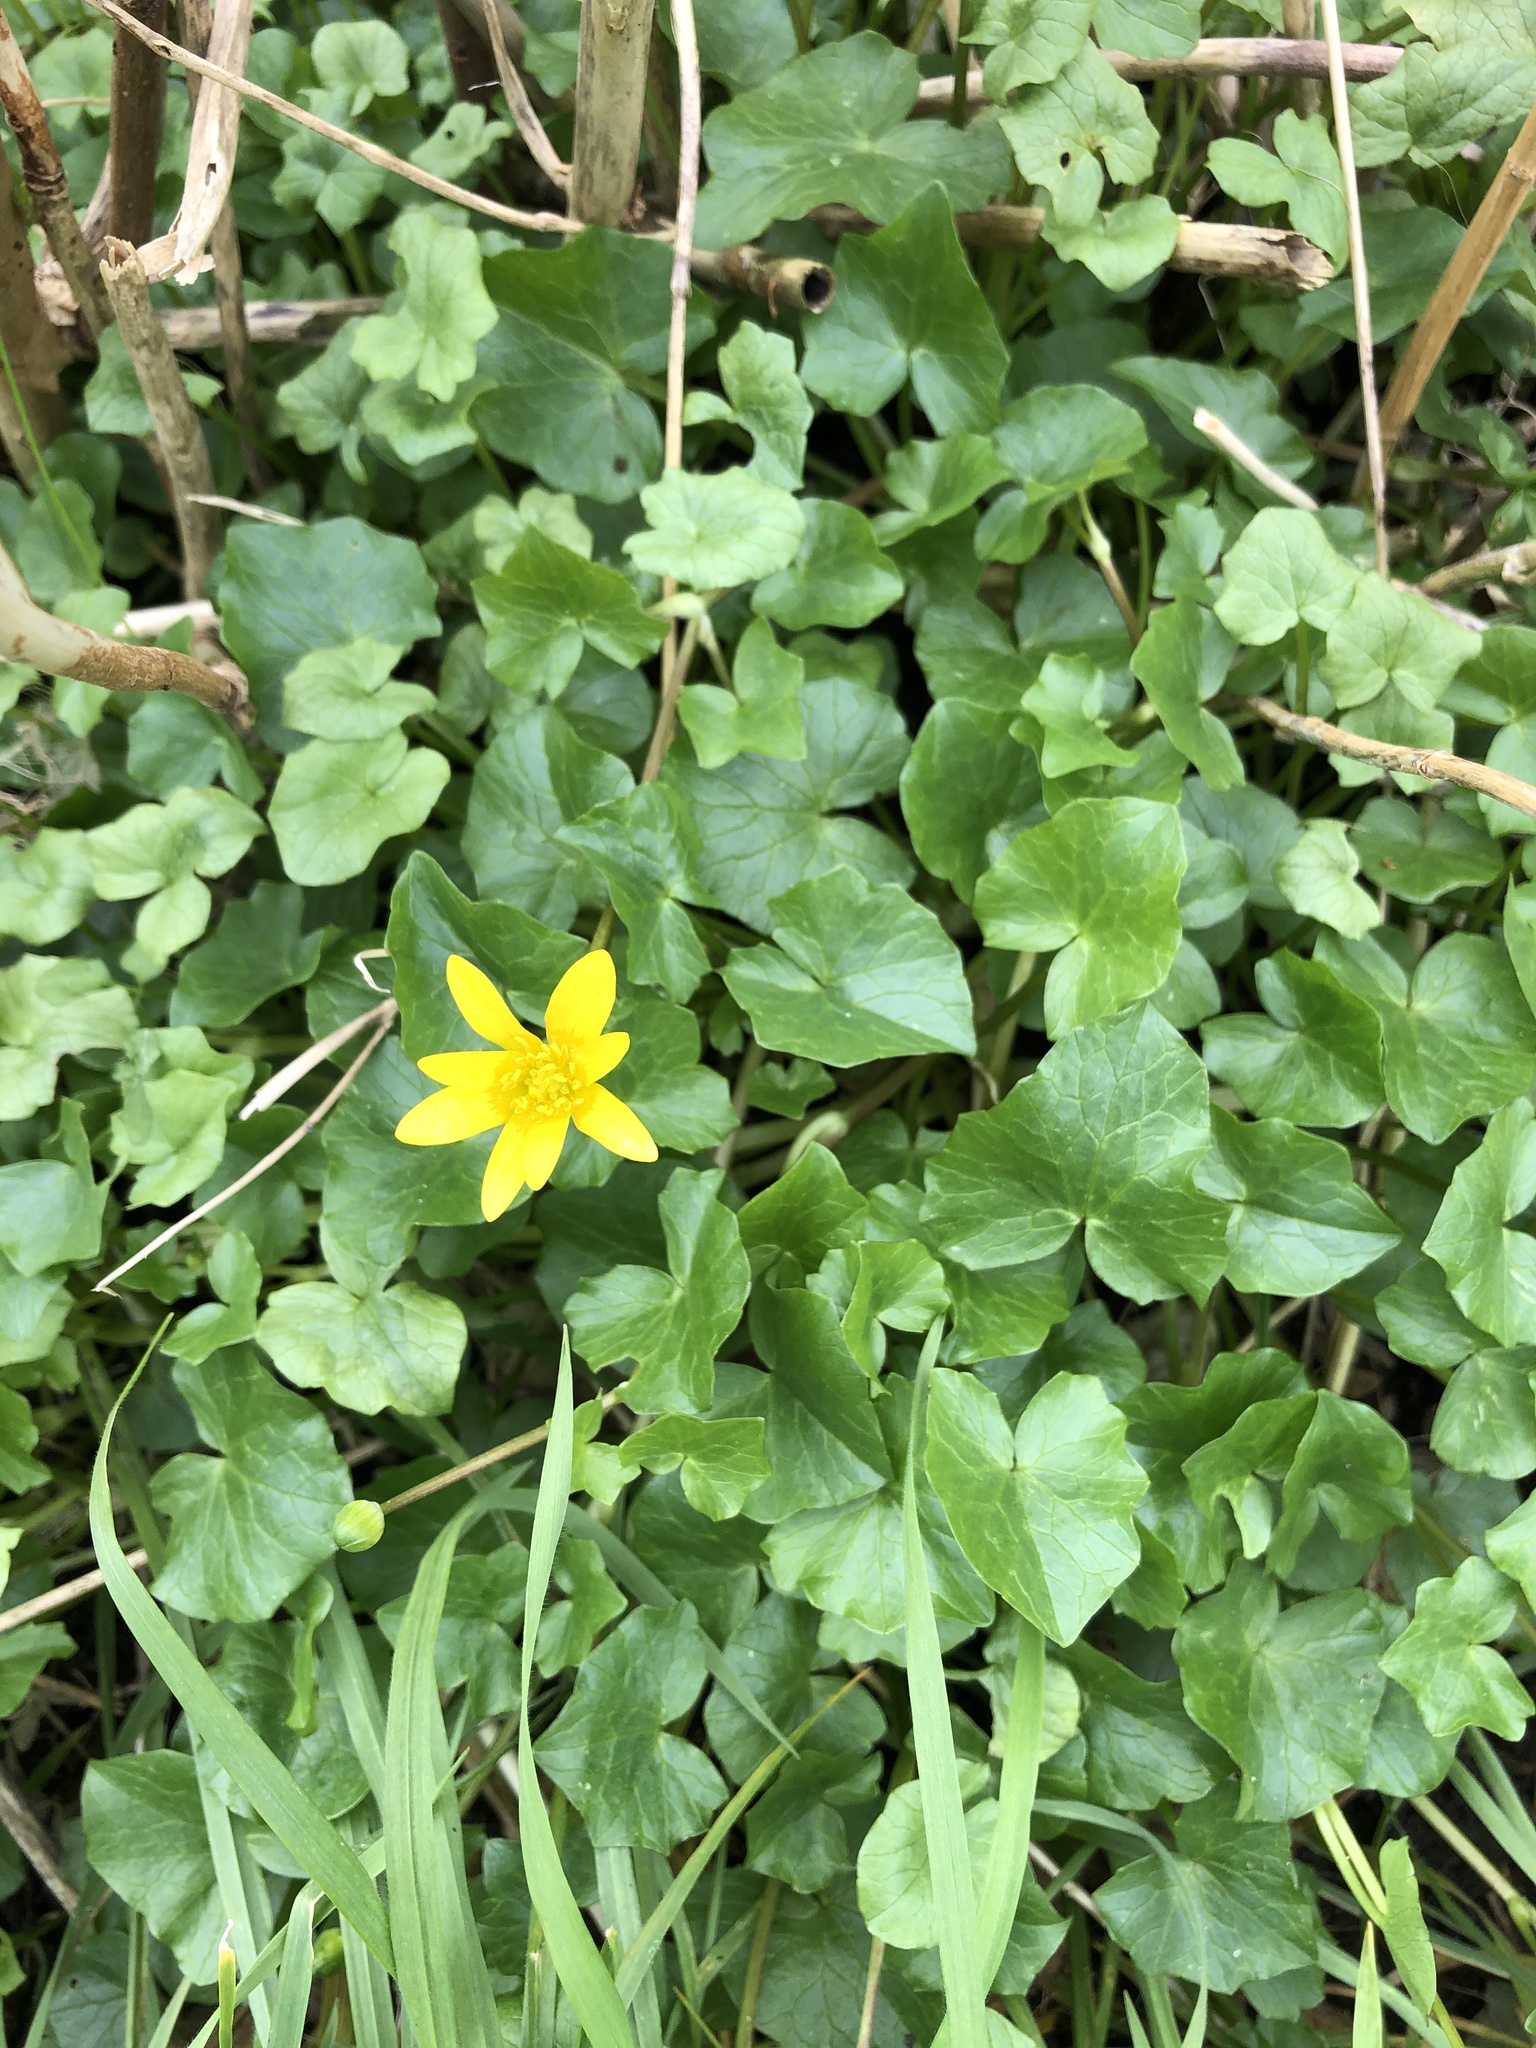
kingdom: Plantae
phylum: Tracheophyta
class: Magnoliopsida
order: Ranunculales
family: Ranunculaceae
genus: Ficaria
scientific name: Ficaria verna
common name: Lesser celandine
